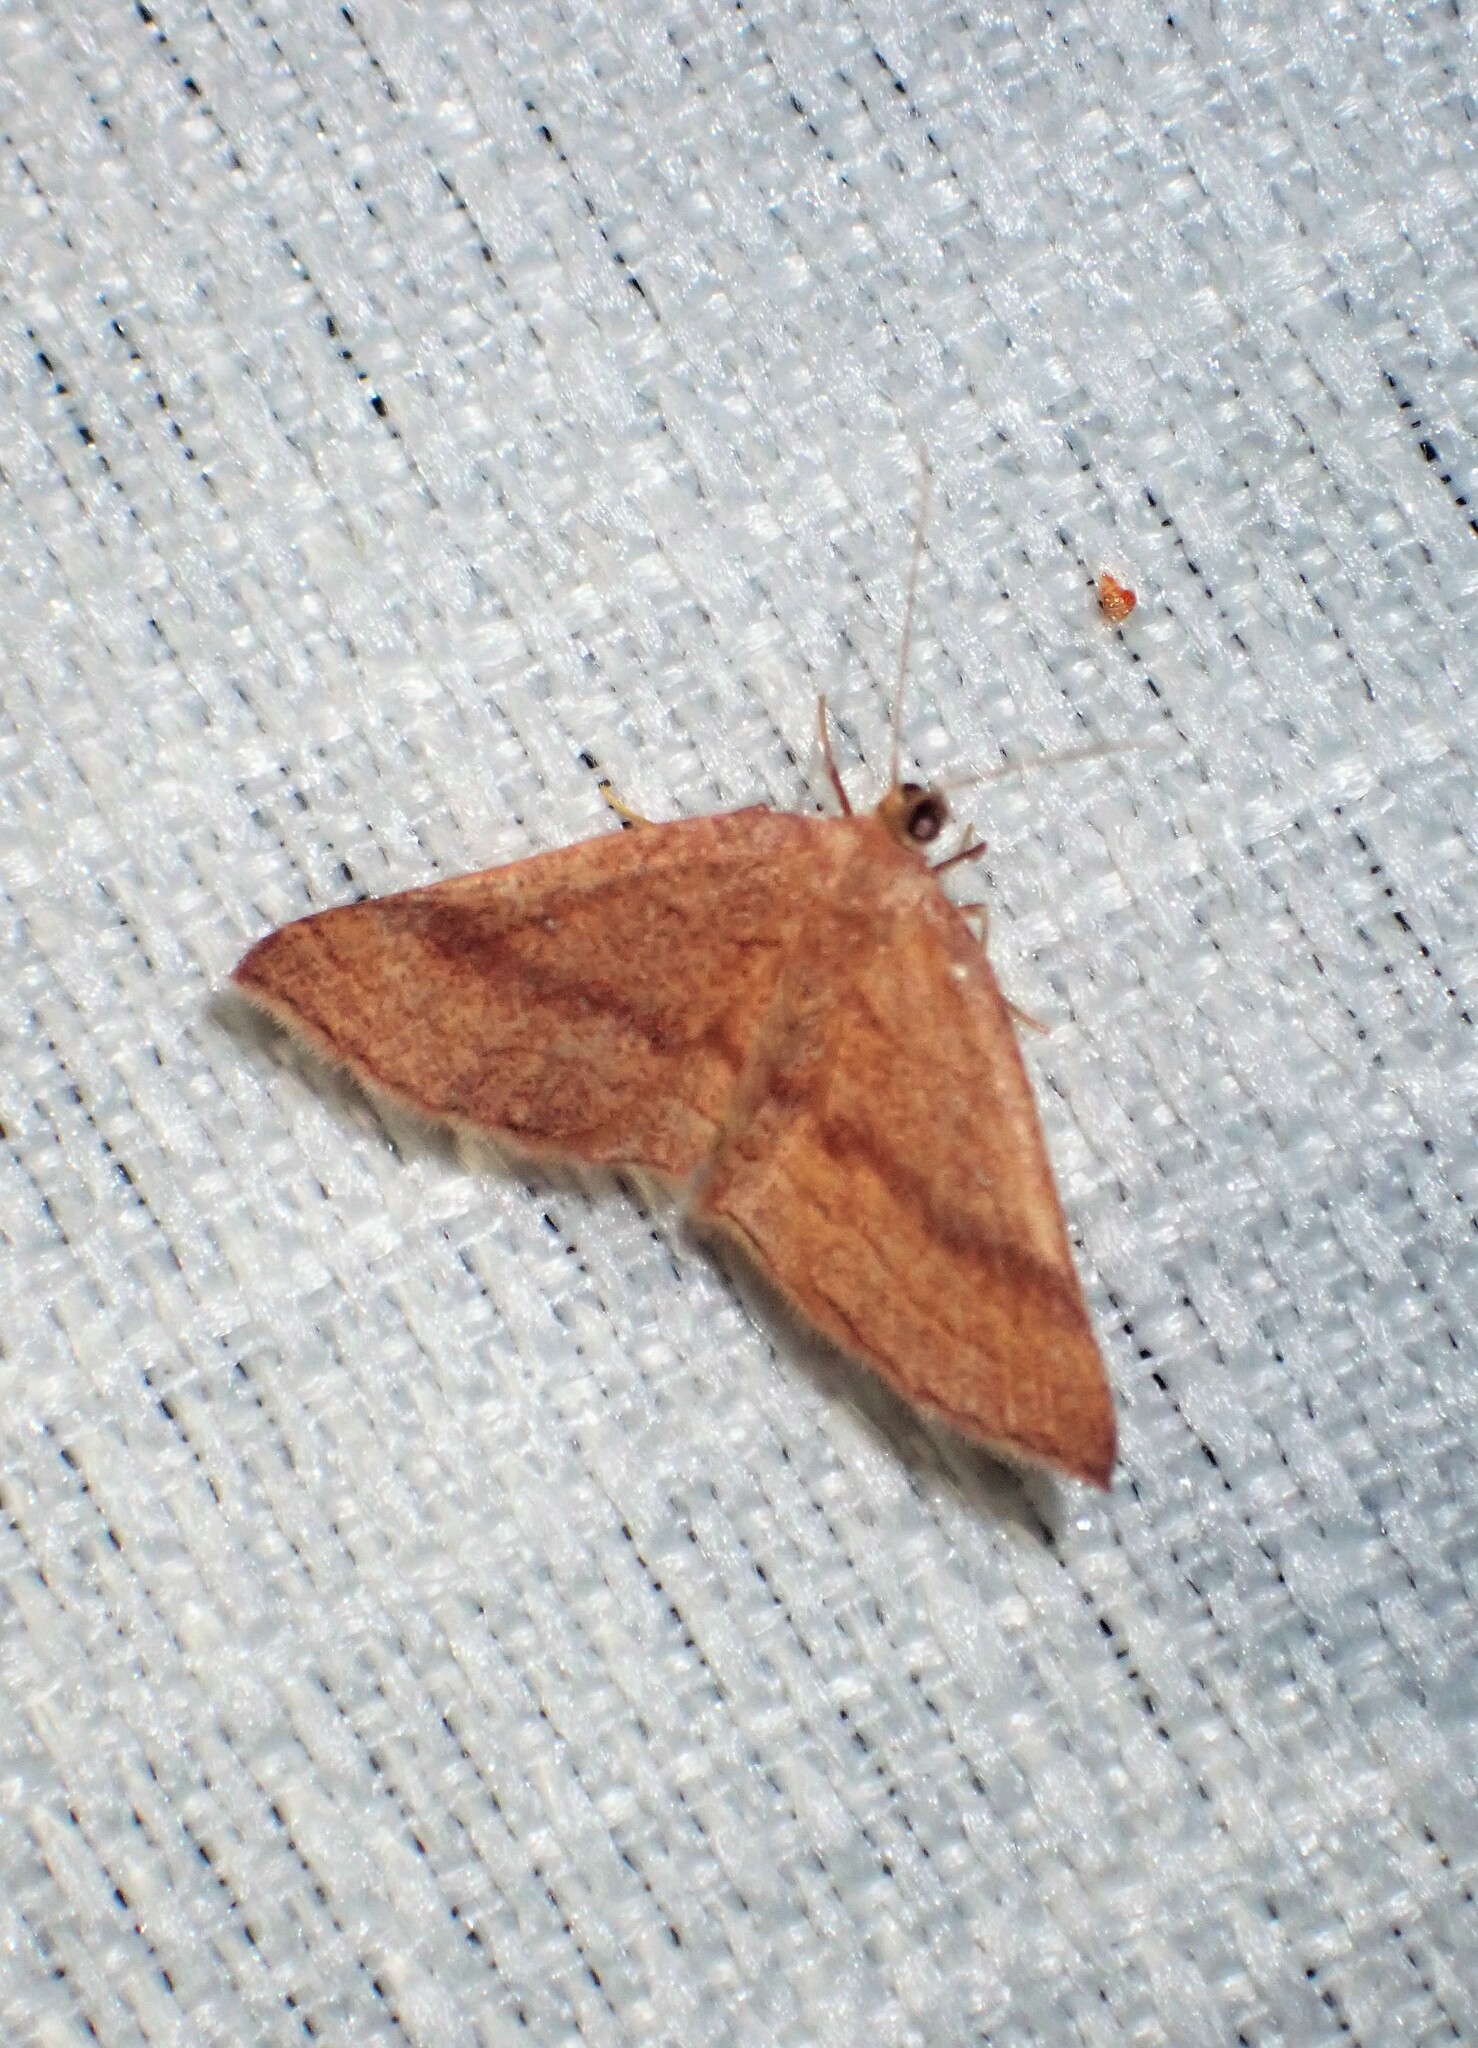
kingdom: Animalia
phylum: Arthropoda
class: Insecta
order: Lepidoptera
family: Geometridae
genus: Cyclophora
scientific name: Cyclophora azorensis
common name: Geometer moth
